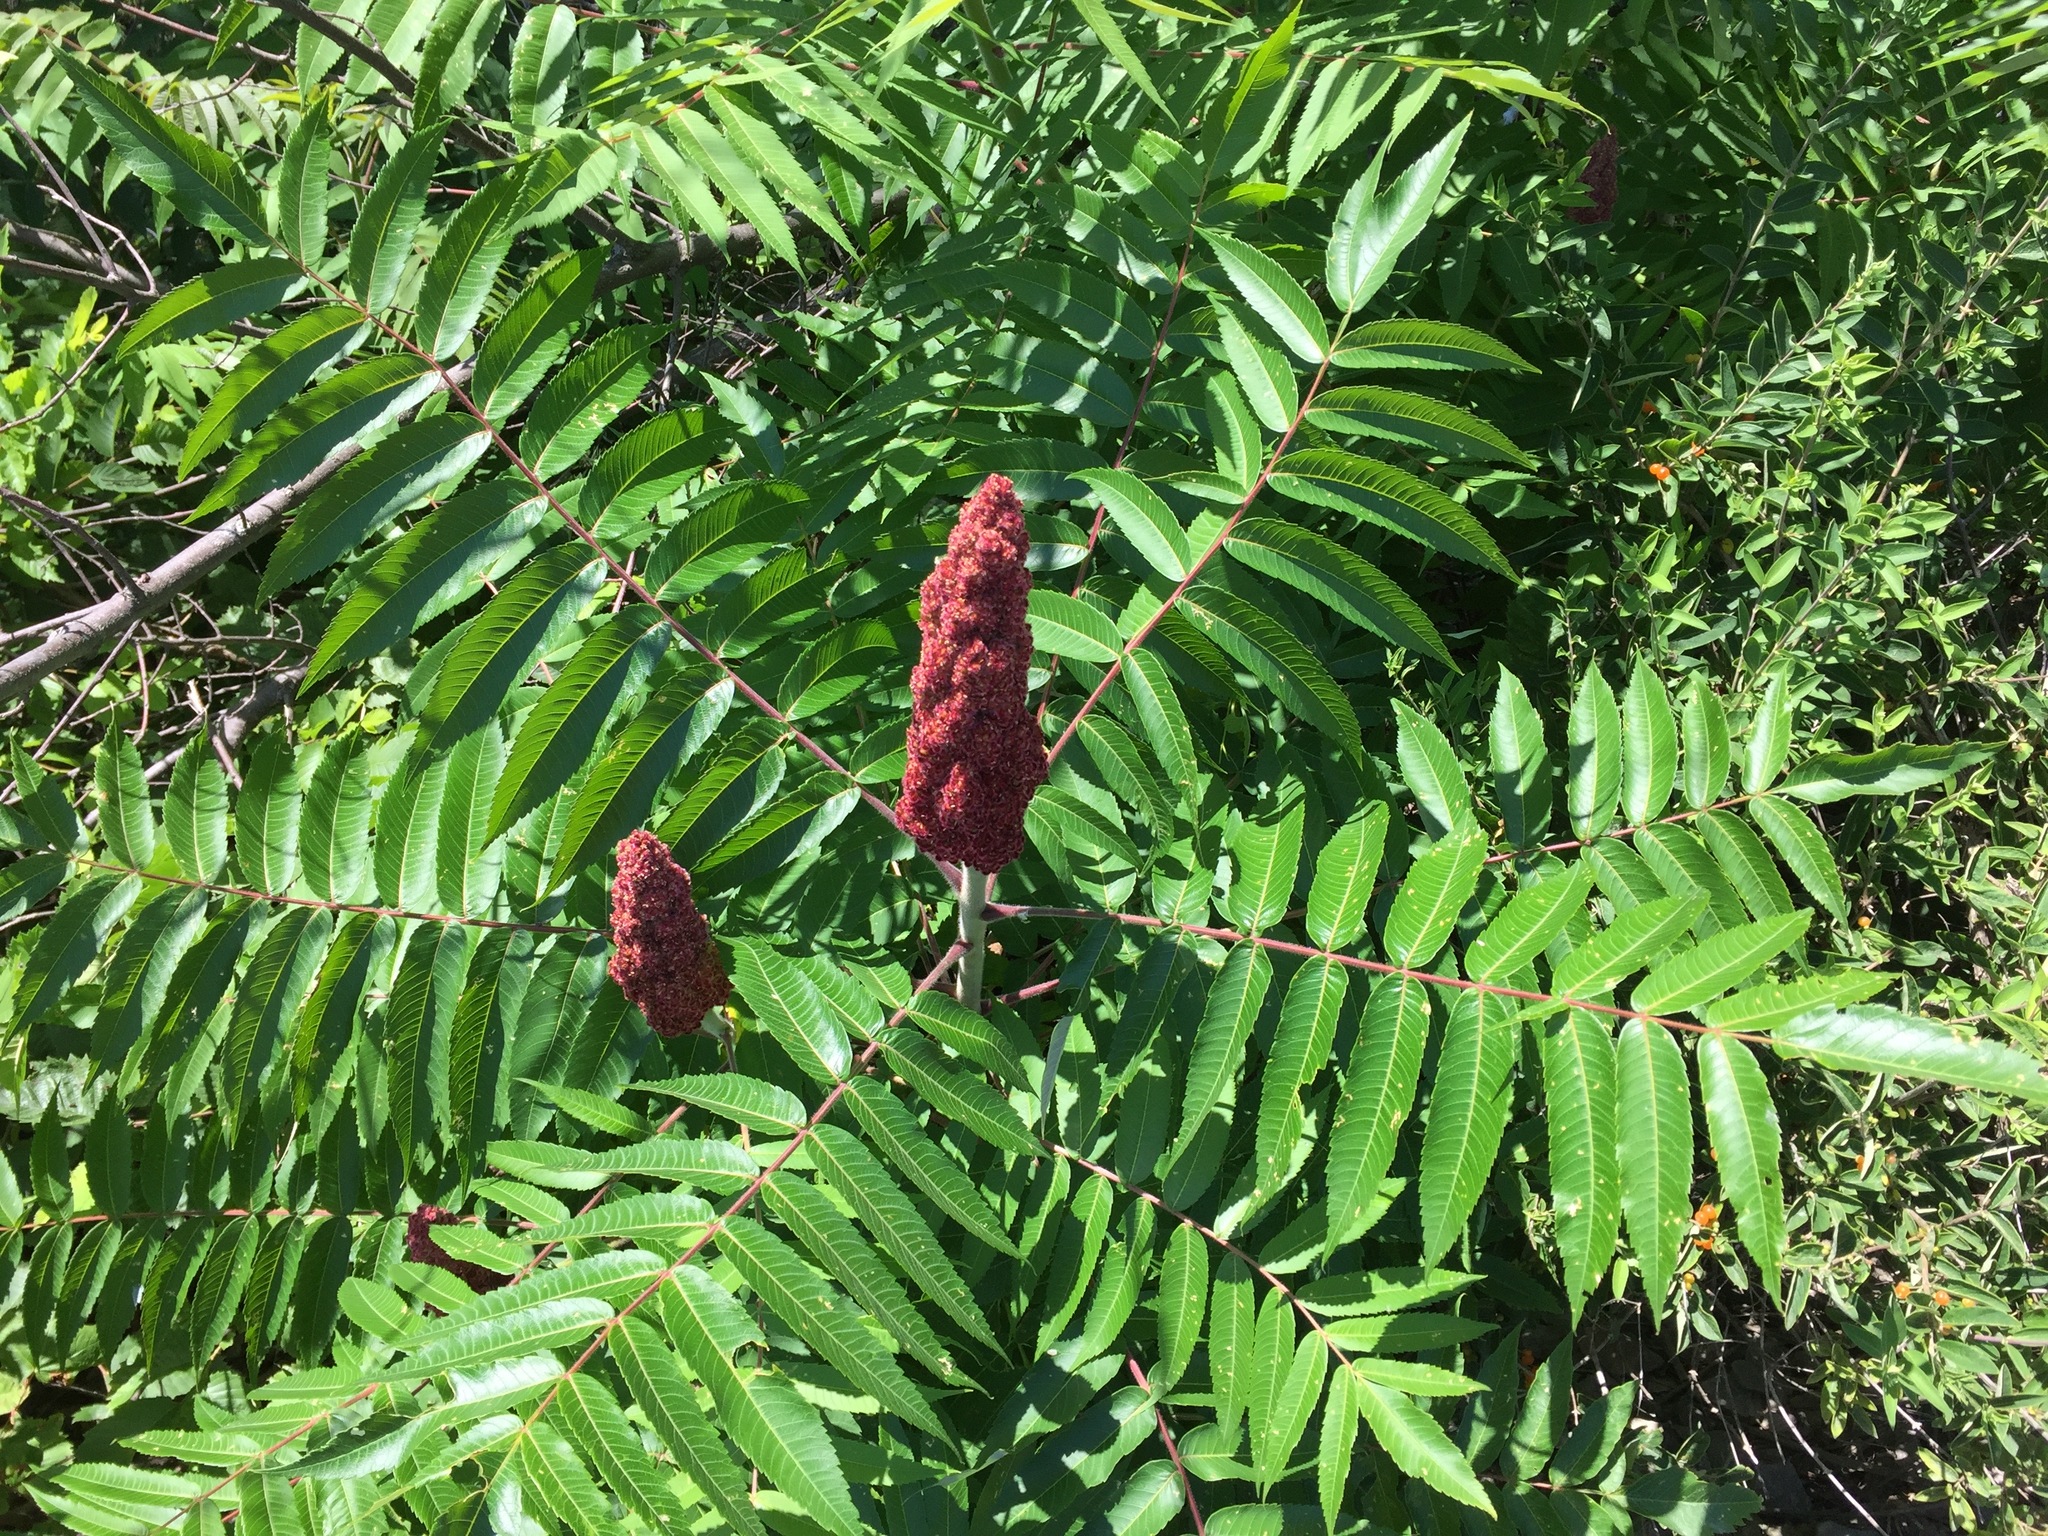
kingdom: Plantae
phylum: Tracheophyta
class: Magnoliopsida
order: Sapindales
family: Anacardiaceae
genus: Rhus
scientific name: Rhus typhina
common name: Staghorn sumac
